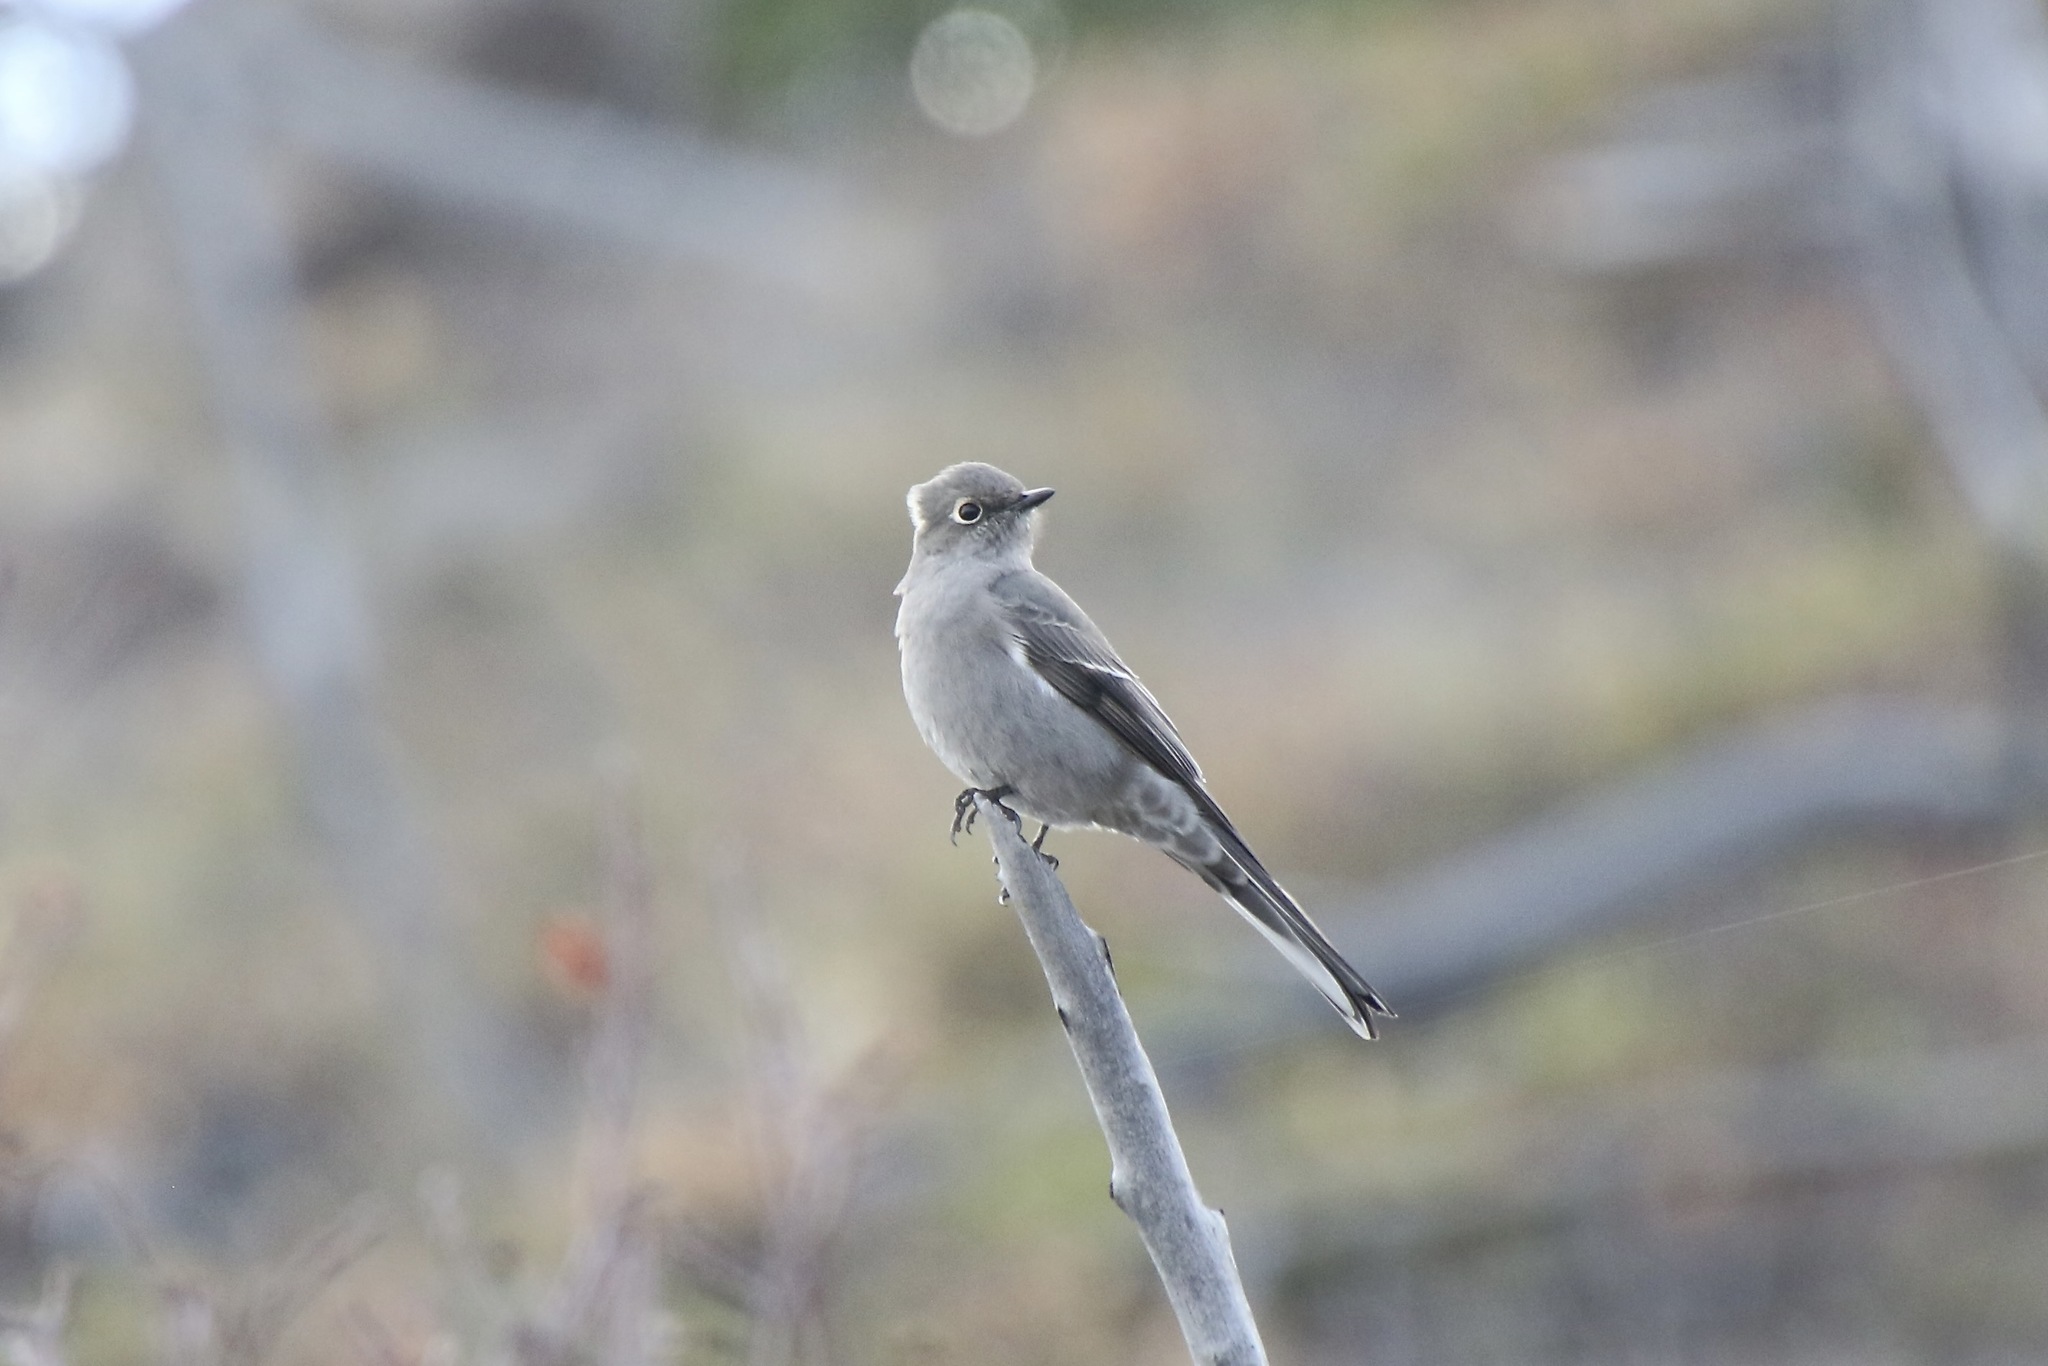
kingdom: Animalia
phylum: Chordata
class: Aves
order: Passeriformes
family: Turdidae
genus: Myadestes
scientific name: Myadestes townsendi
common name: Townsend's solitaire
